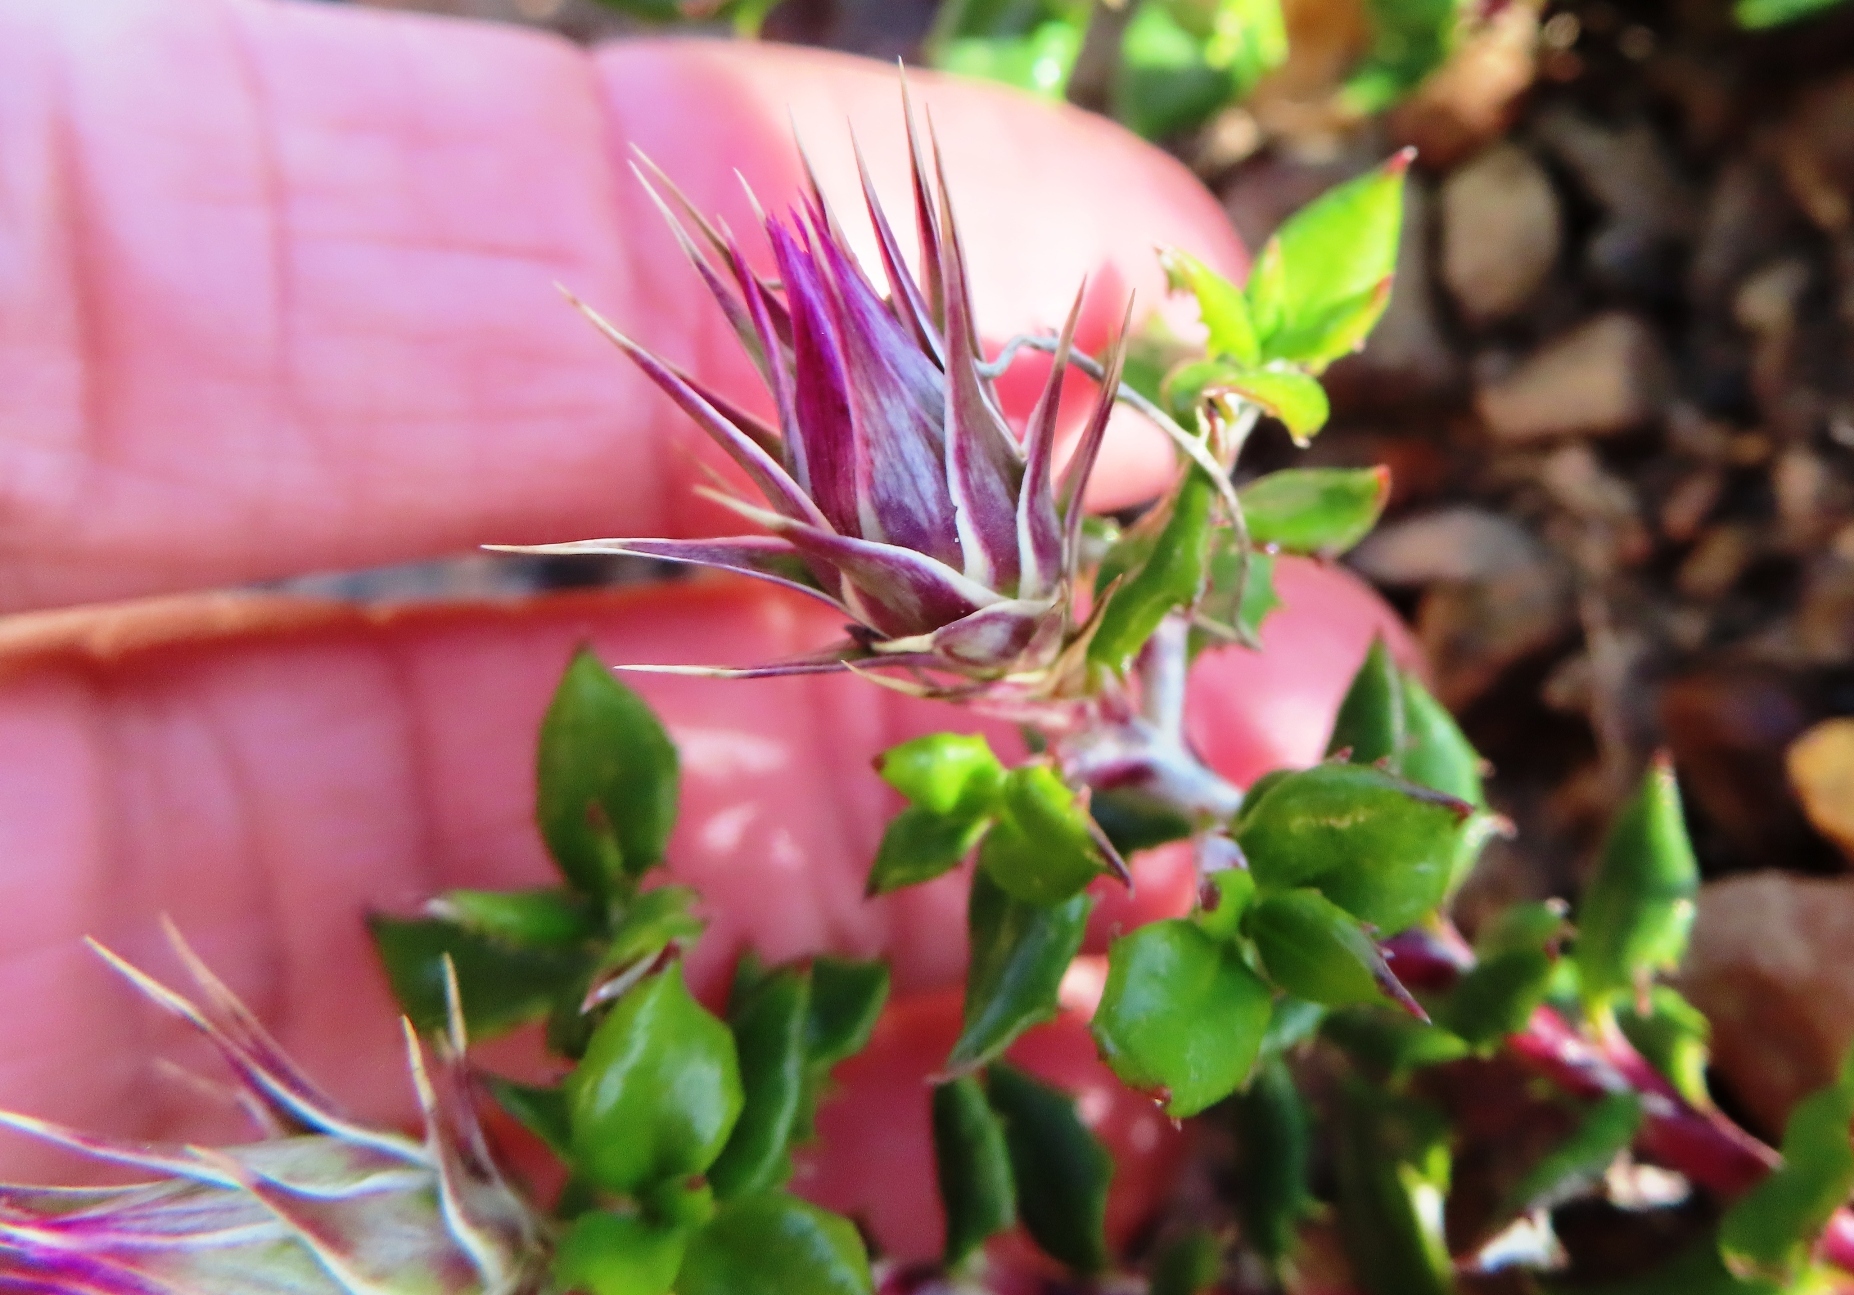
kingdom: Plantae
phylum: Tracheophyta
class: Magnoliopsida
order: Asterales
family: Asteraceae
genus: Macledium
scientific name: Macledium spinosum
